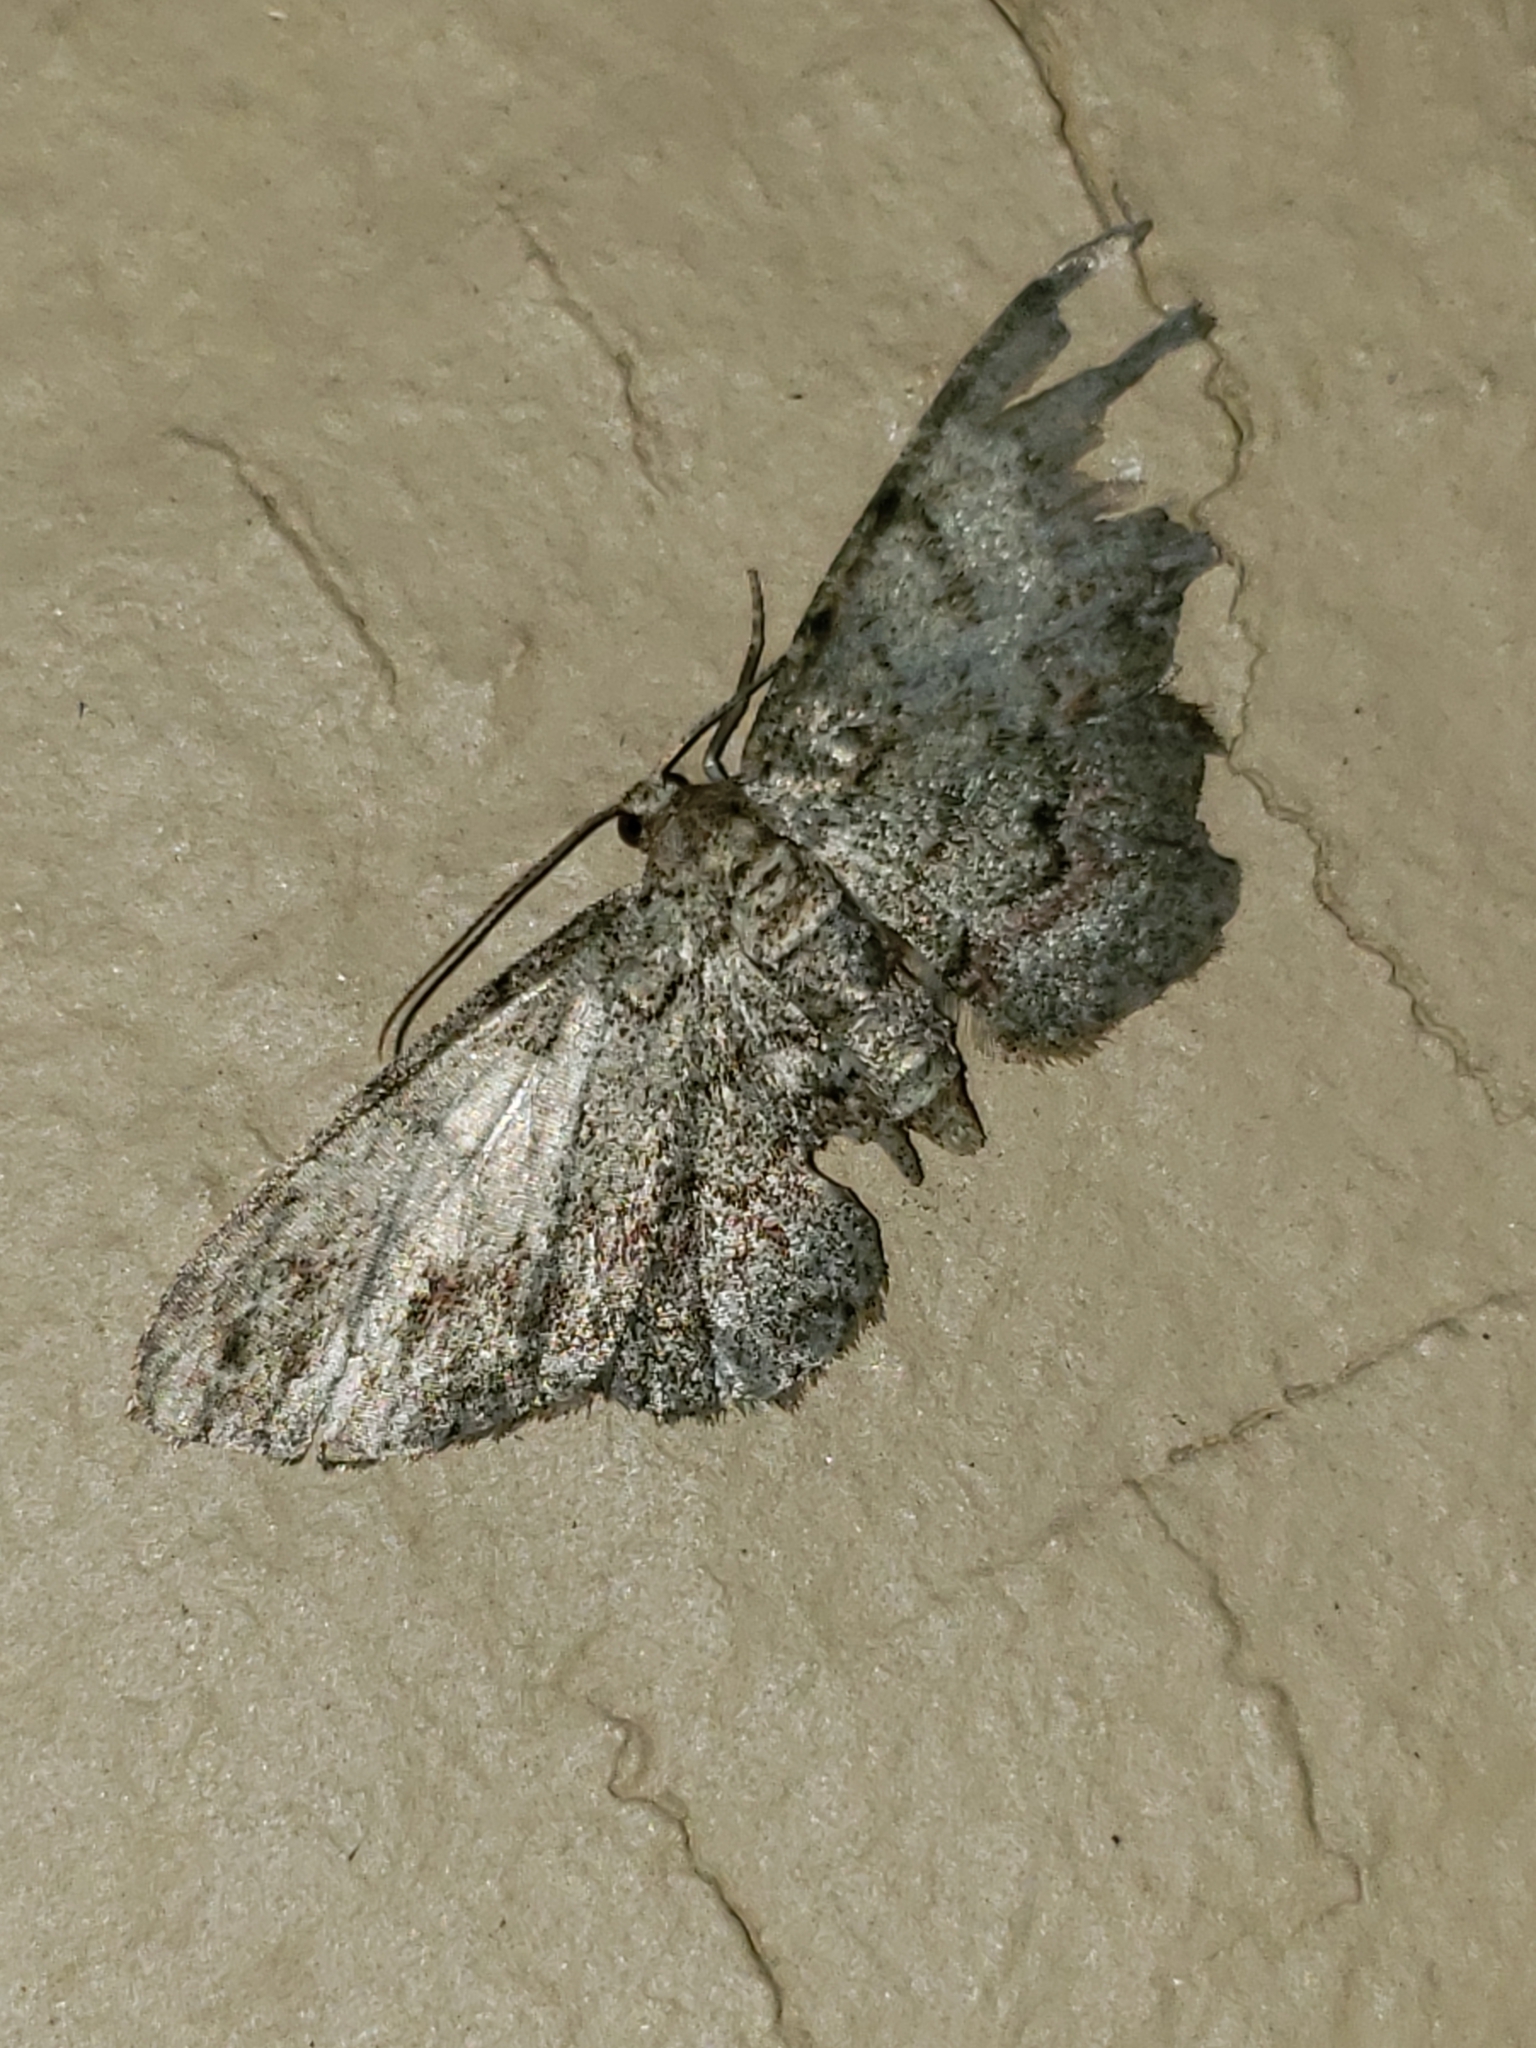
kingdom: Animalia
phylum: Arthropoda
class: Insecta
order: Lepidoptera
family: Geometridae
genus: Glenoides
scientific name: Glenoides texanaria
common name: Texas gray
